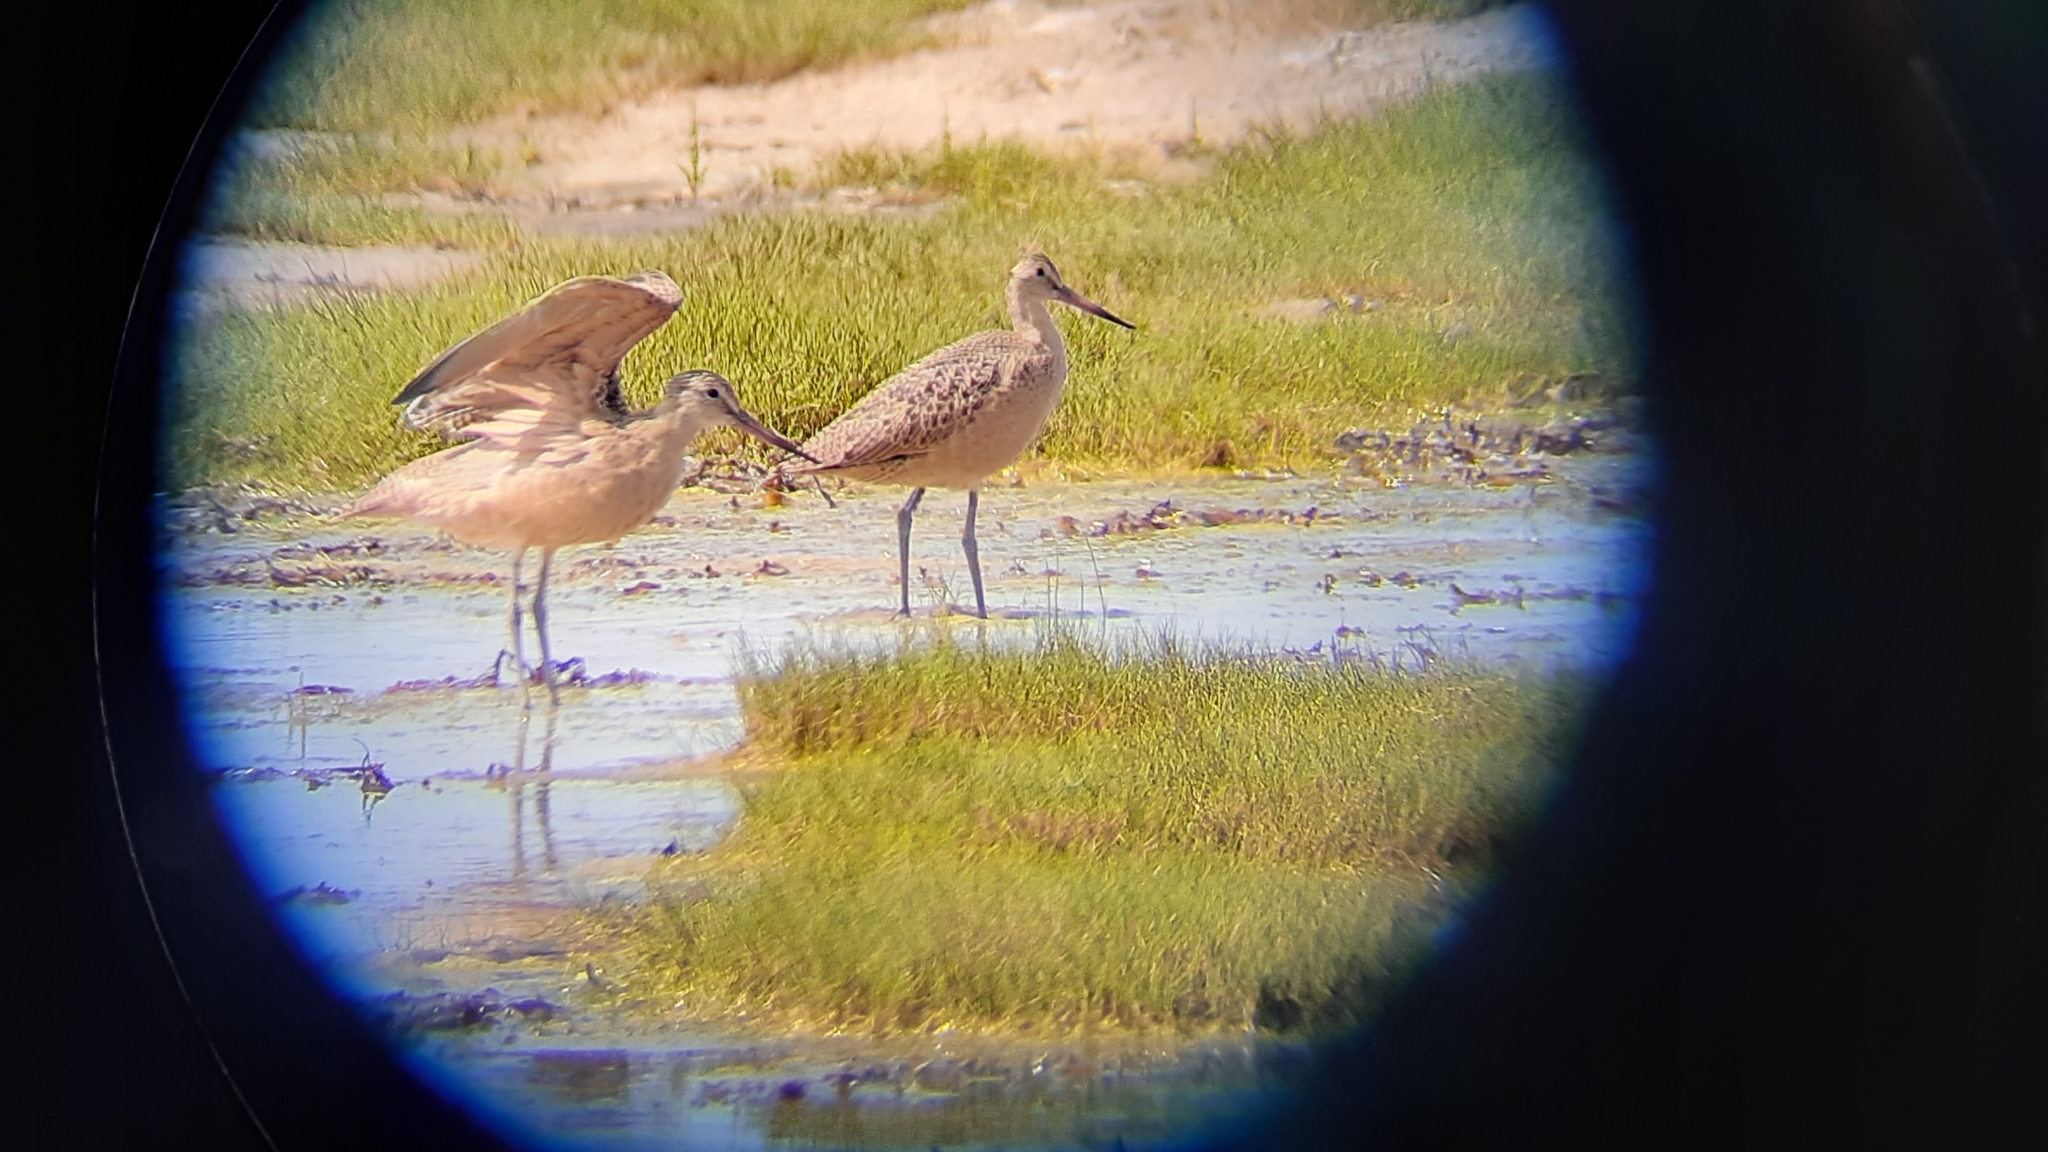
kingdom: Animalia
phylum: Chordata
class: Aves
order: Charadriiformes
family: Scolopacidae
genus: Limosa
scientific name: Limosa fedoa
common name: Marbled godwit
